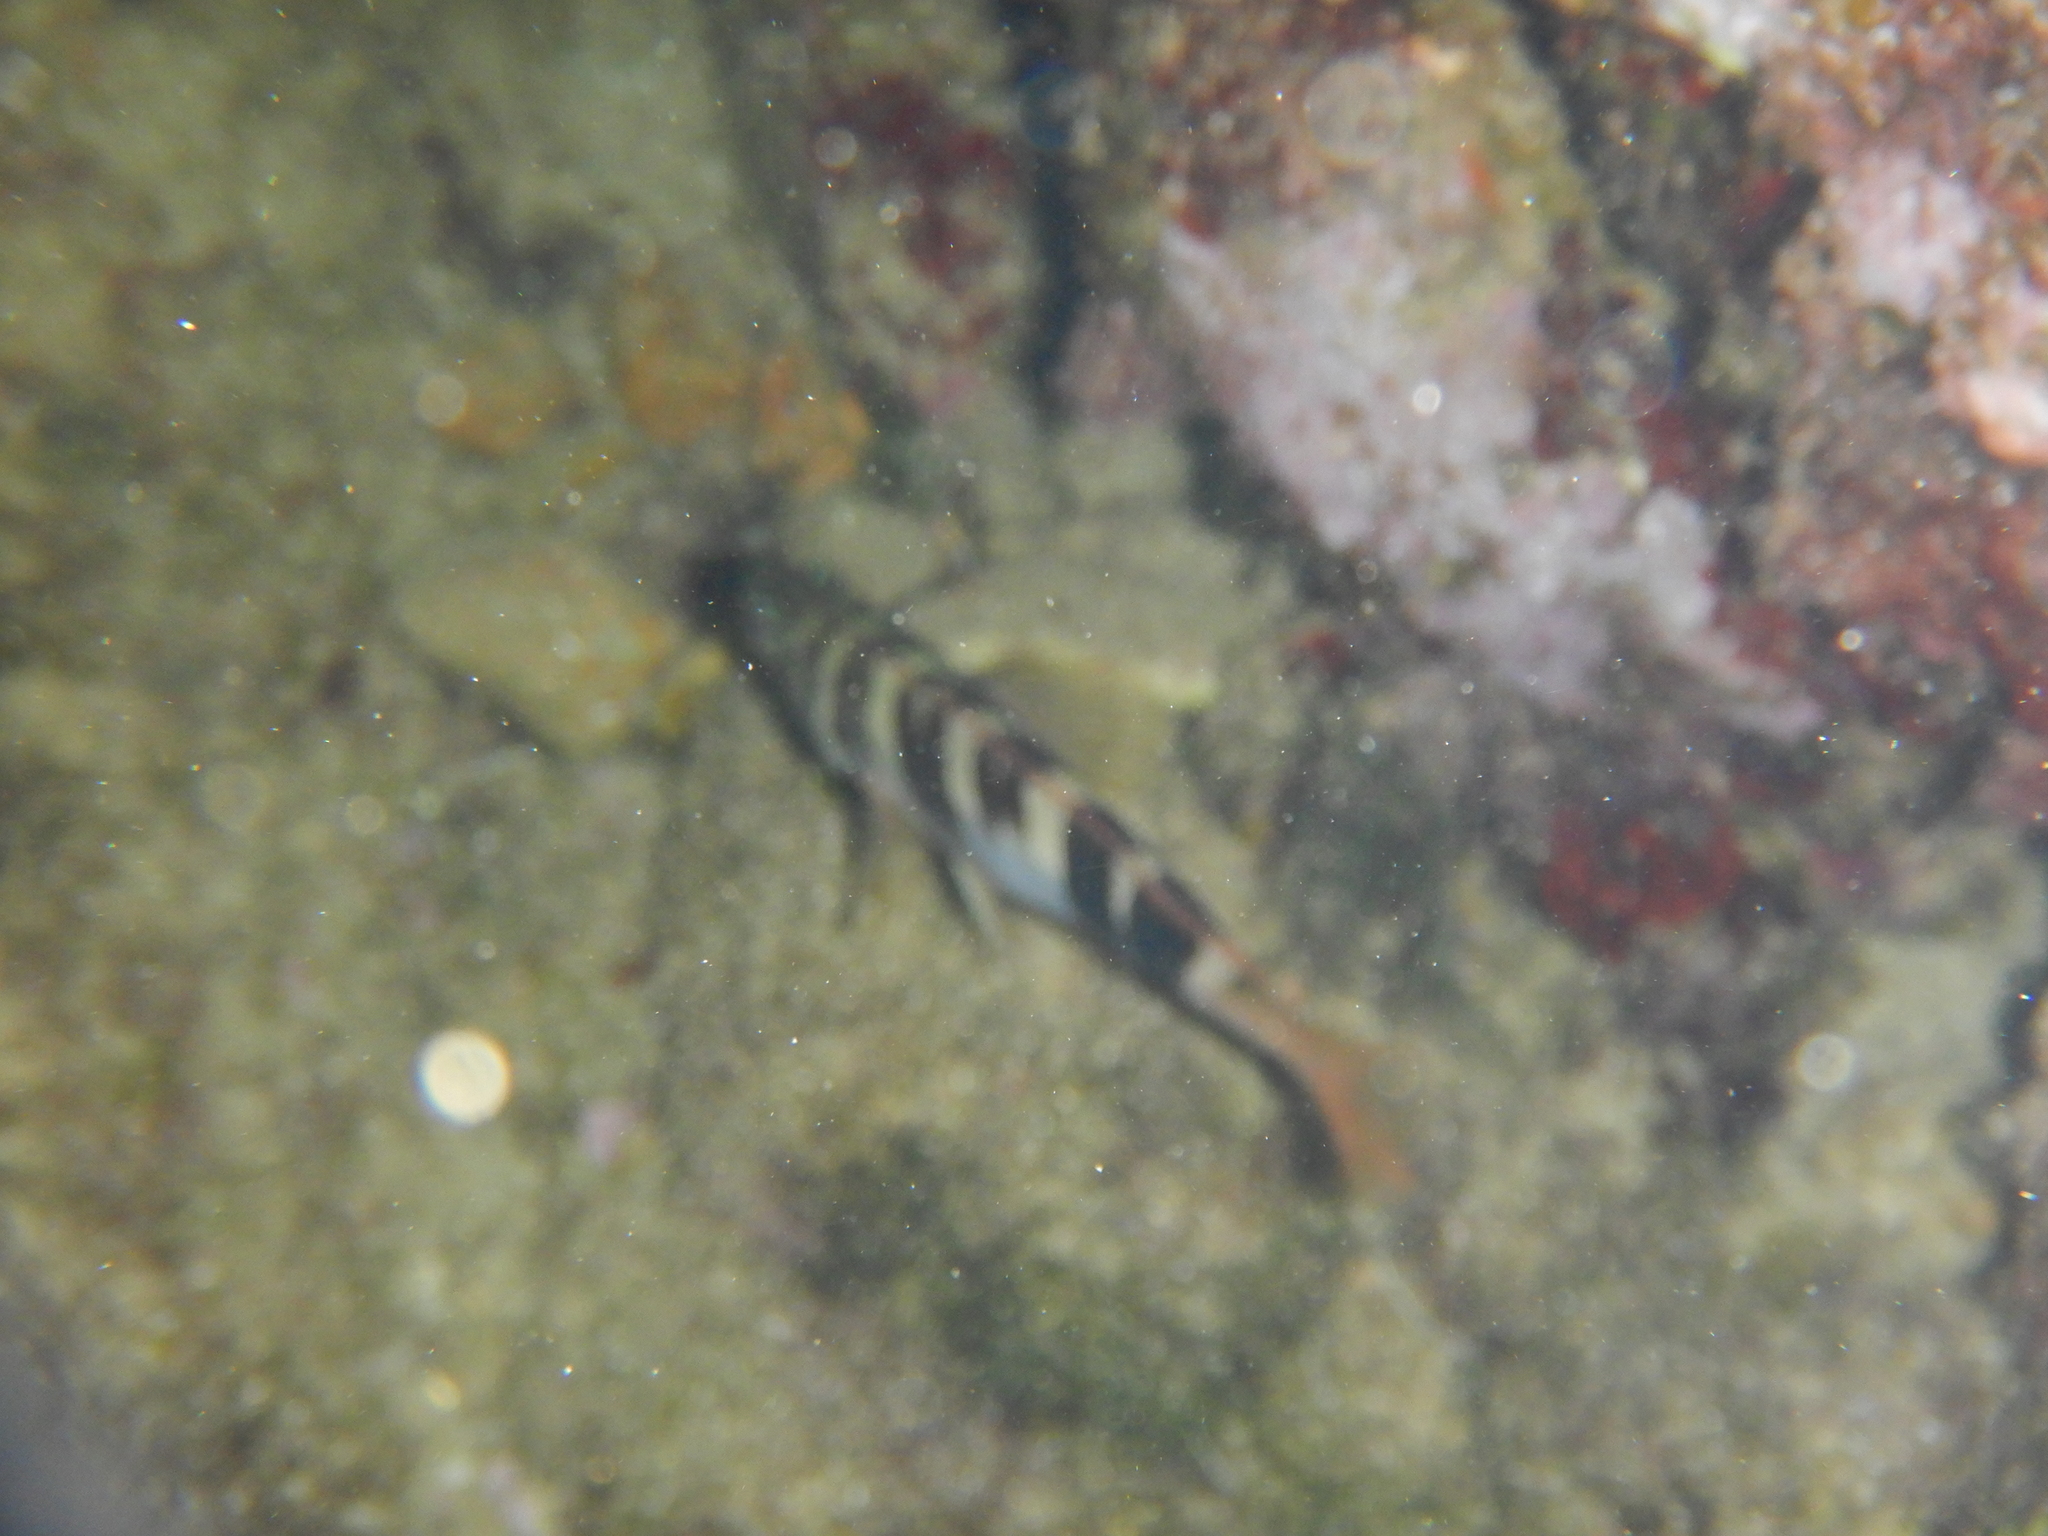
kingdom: Animalia
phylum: Chordata
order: Perciformes
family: Serranidae
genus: Serranus
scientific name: Serranus scriba
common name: Painted comber
